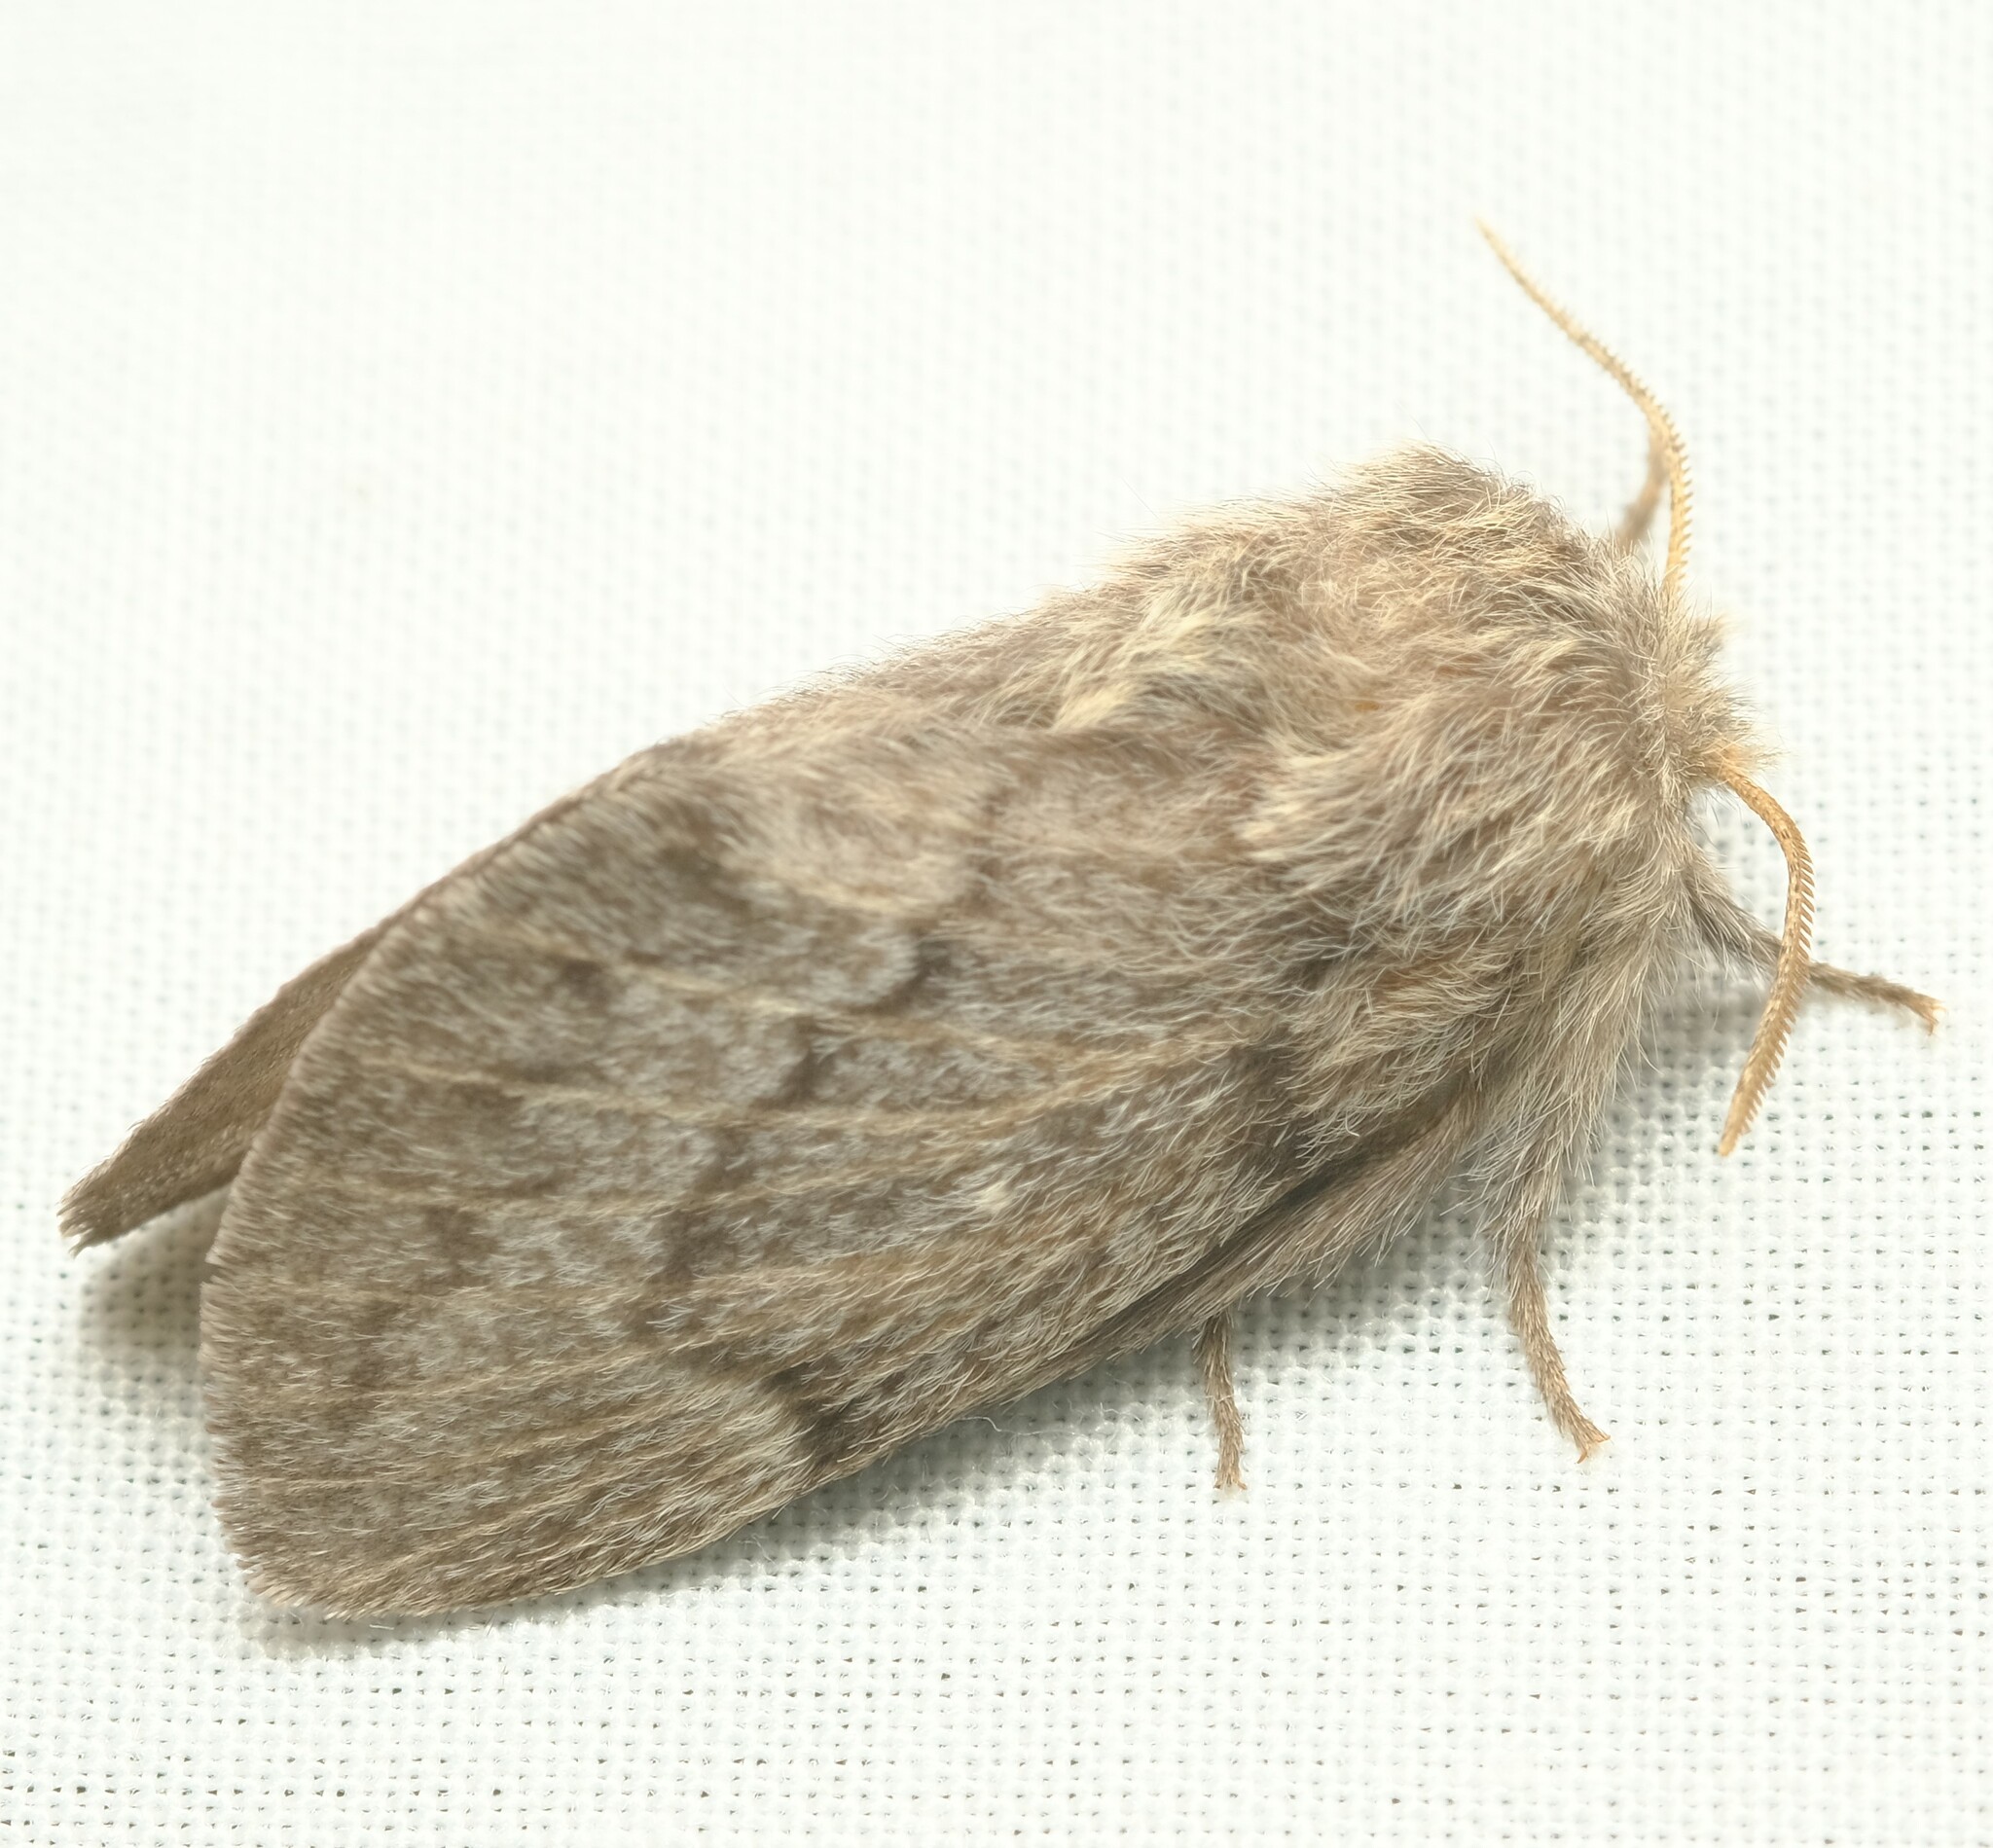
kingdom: Animalia
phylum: Arthropoda
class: Insecta
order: Lepidoptera
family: Lasiocampidae
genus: Pernattia
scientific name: Pernattia pusilla
